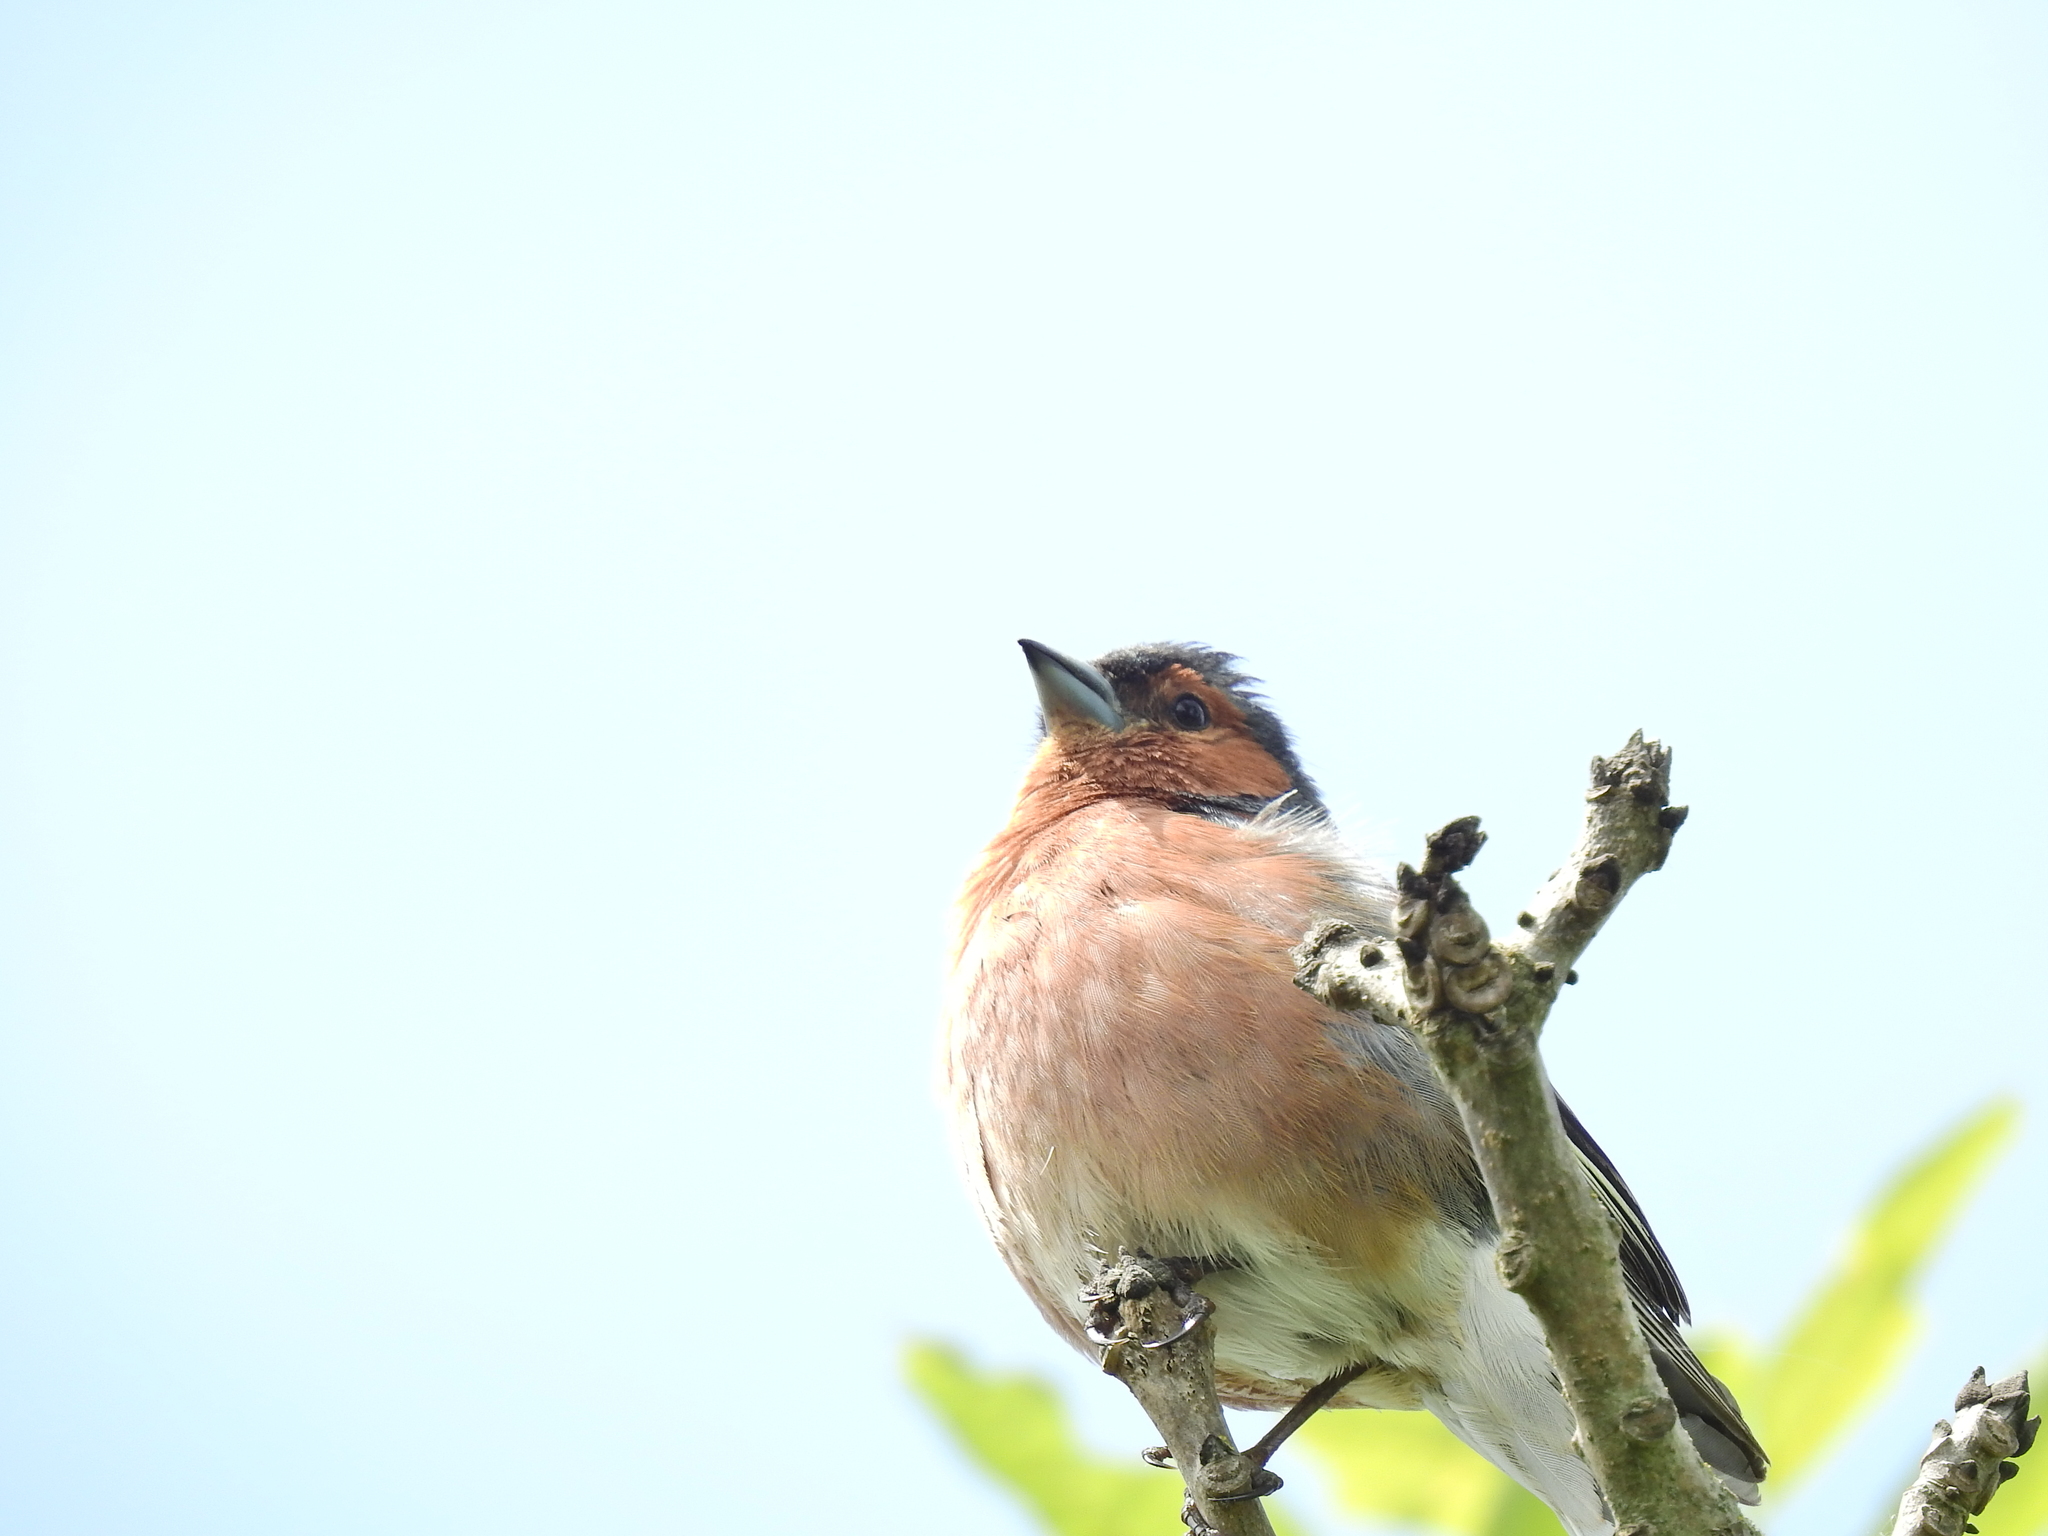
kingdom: Animalia
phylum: Chordata
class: Aves
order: Passeriformes
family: Fringillidae
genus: Fringilla
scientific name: Fringilla coelebs
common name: Common chaffinch
